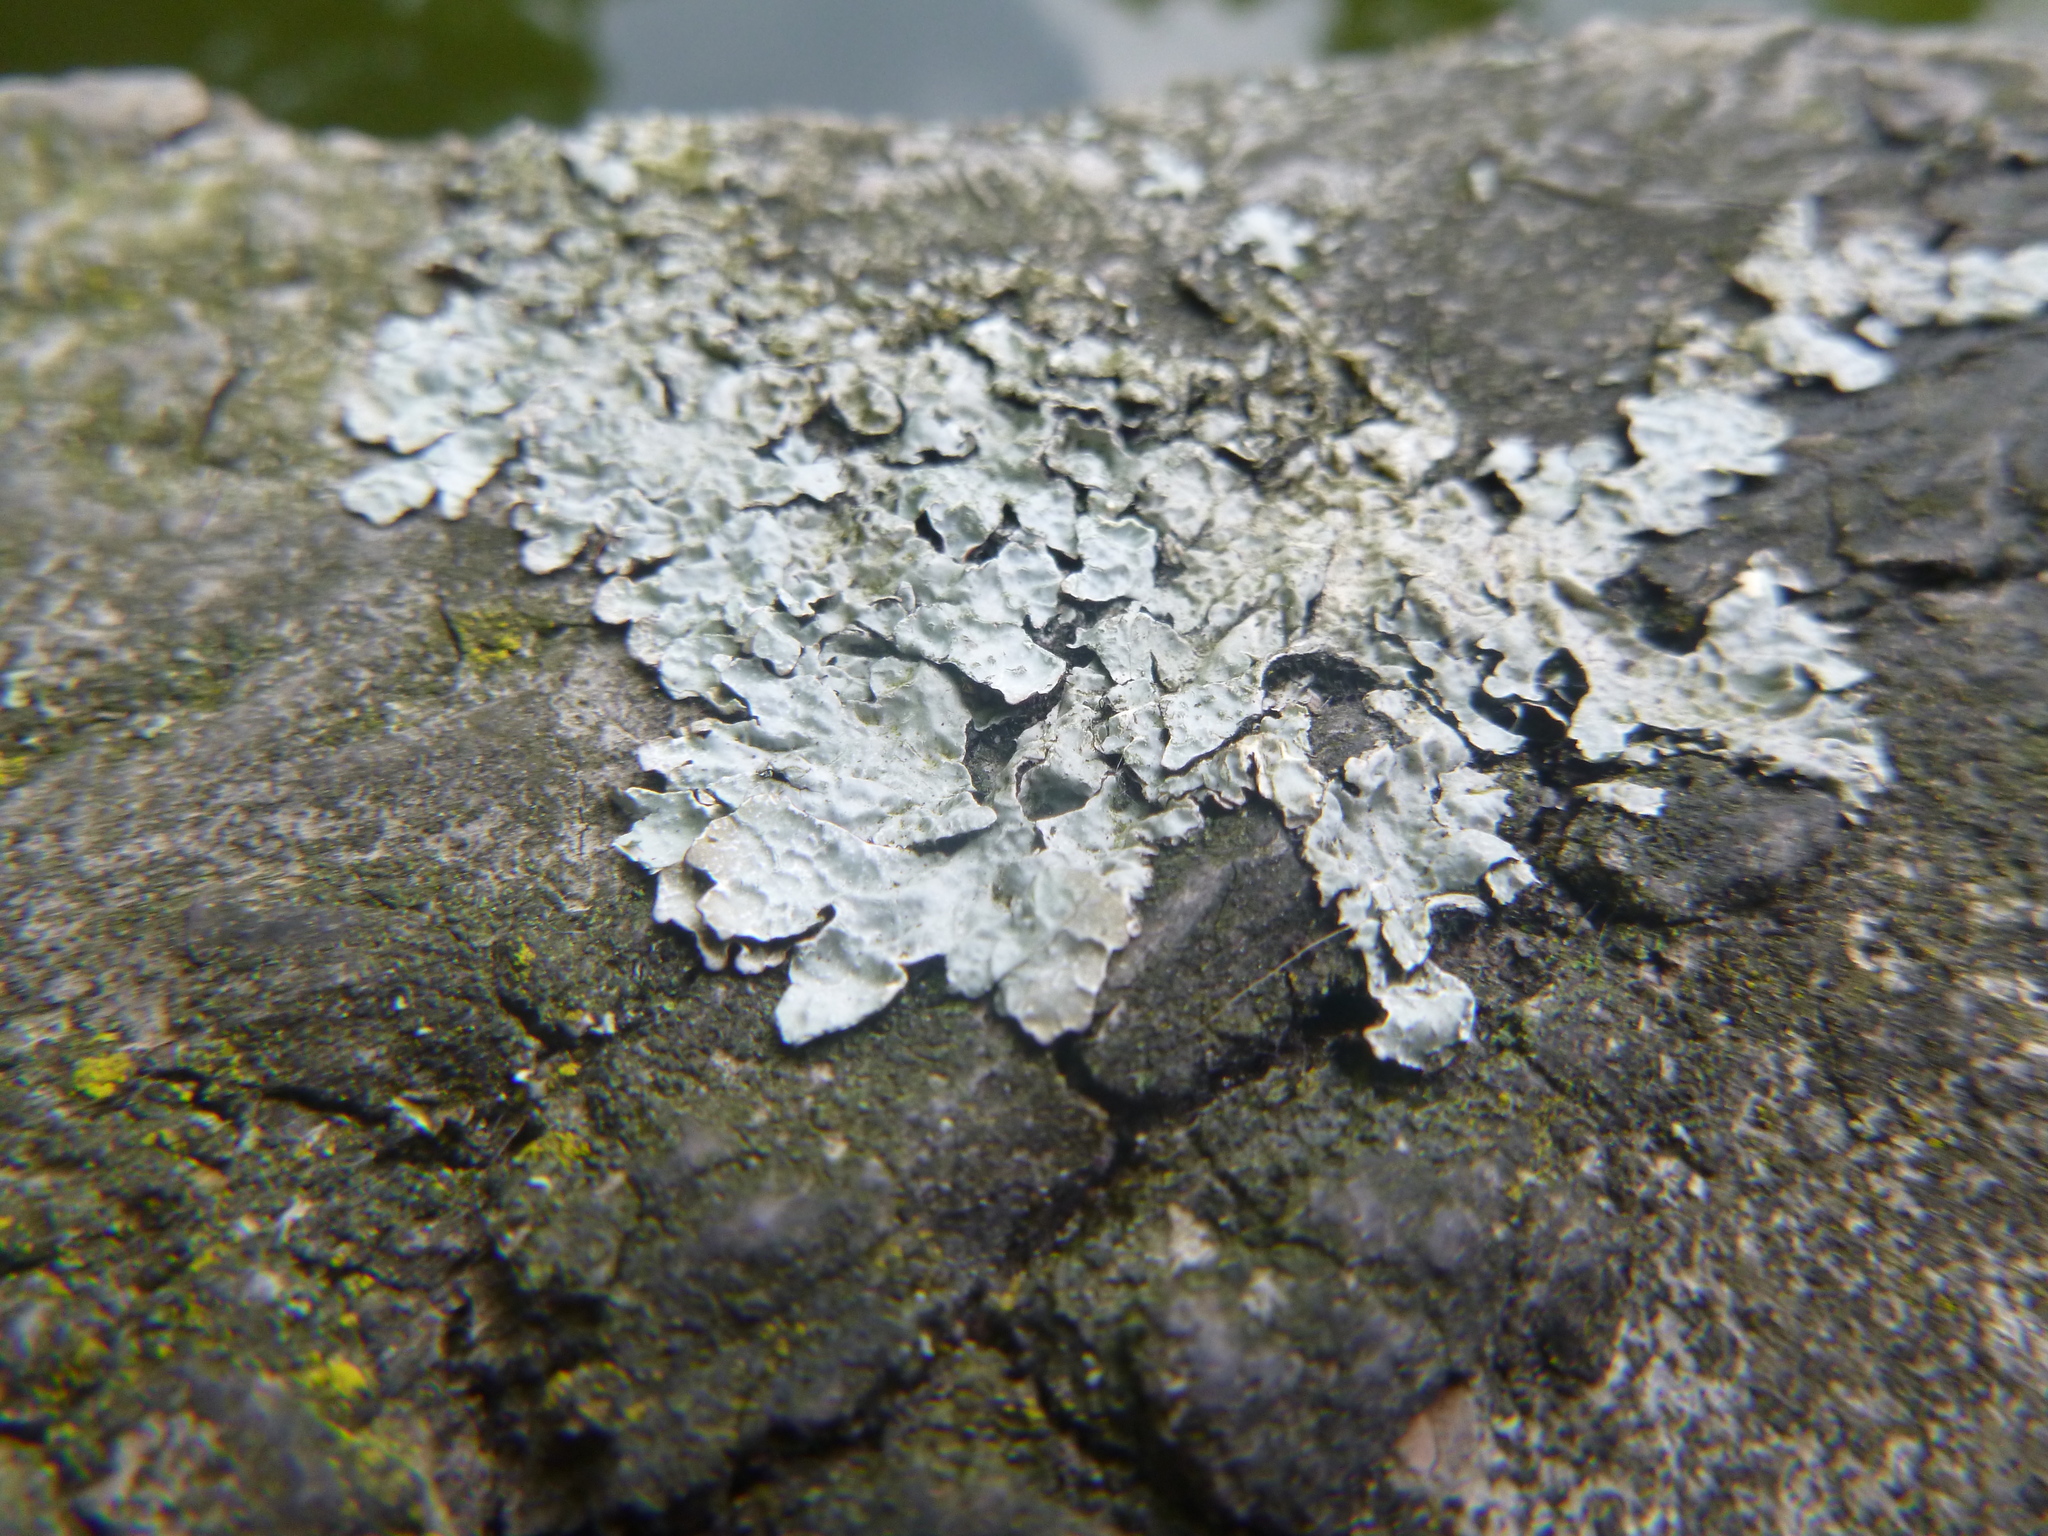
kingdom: Fungi
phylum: Ascomycota
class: Lecanoromycetes
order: Lecanorales
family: Parmeliaceae
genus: Parmelia
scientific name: Parmelia sulcata
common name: Netted shield lichen
